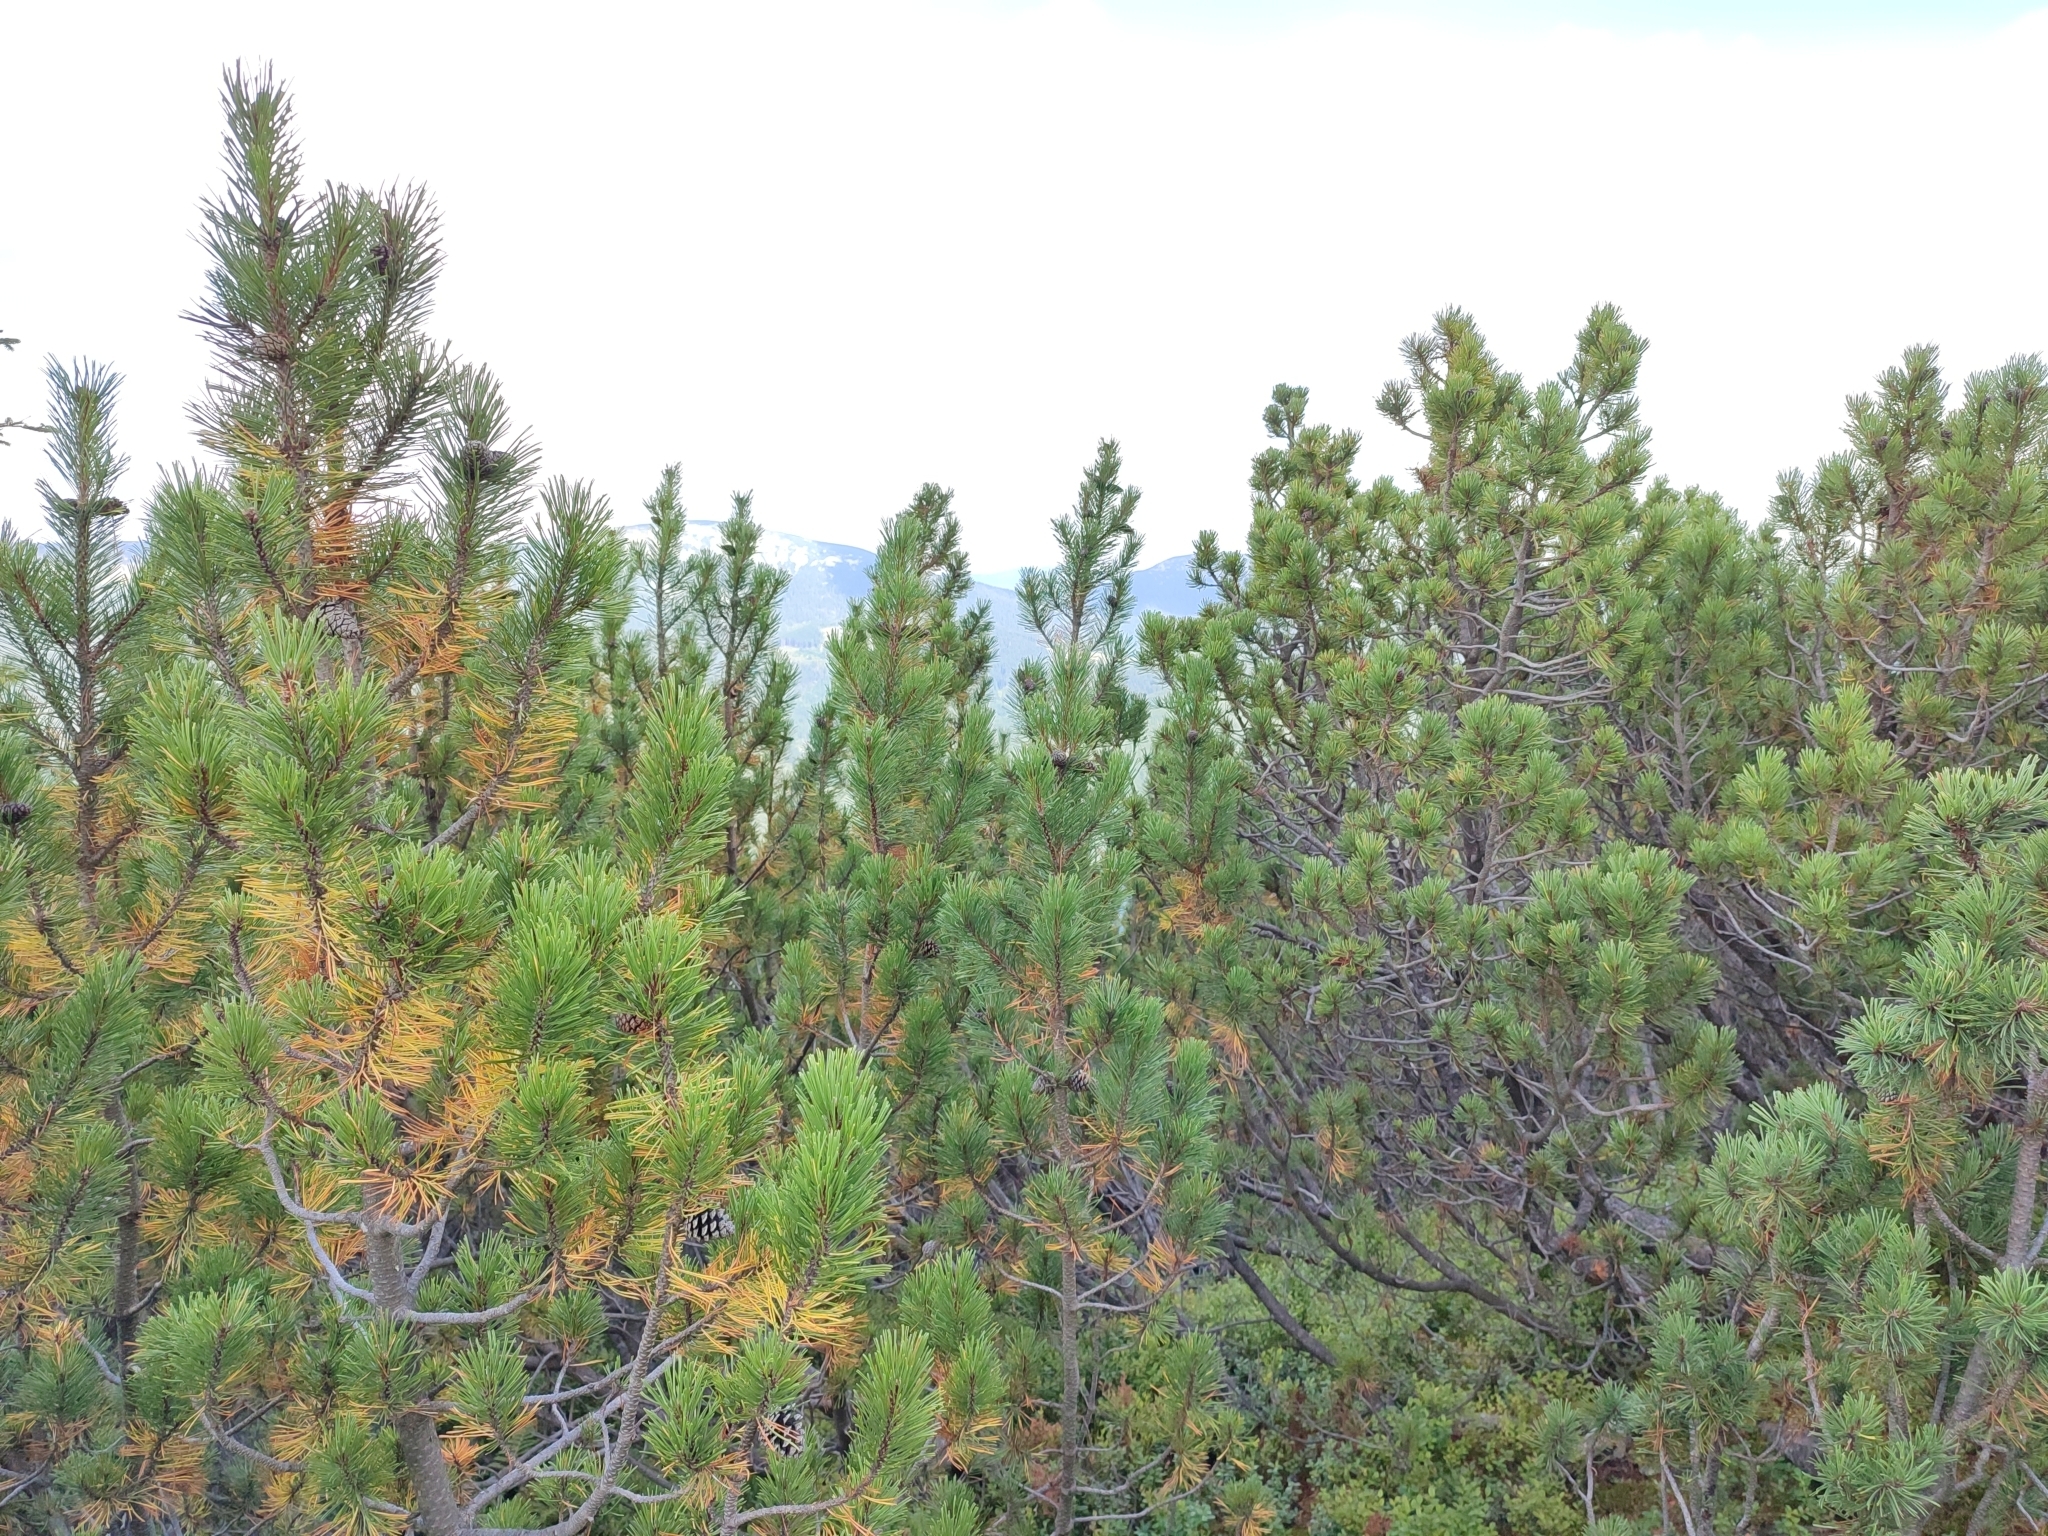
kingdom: Plantae
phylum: Tracheophyta
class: Pinopsida
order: Pinales
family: Pinaceae
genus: Pinus
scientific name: Pinus mugo
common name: Mugo pine
